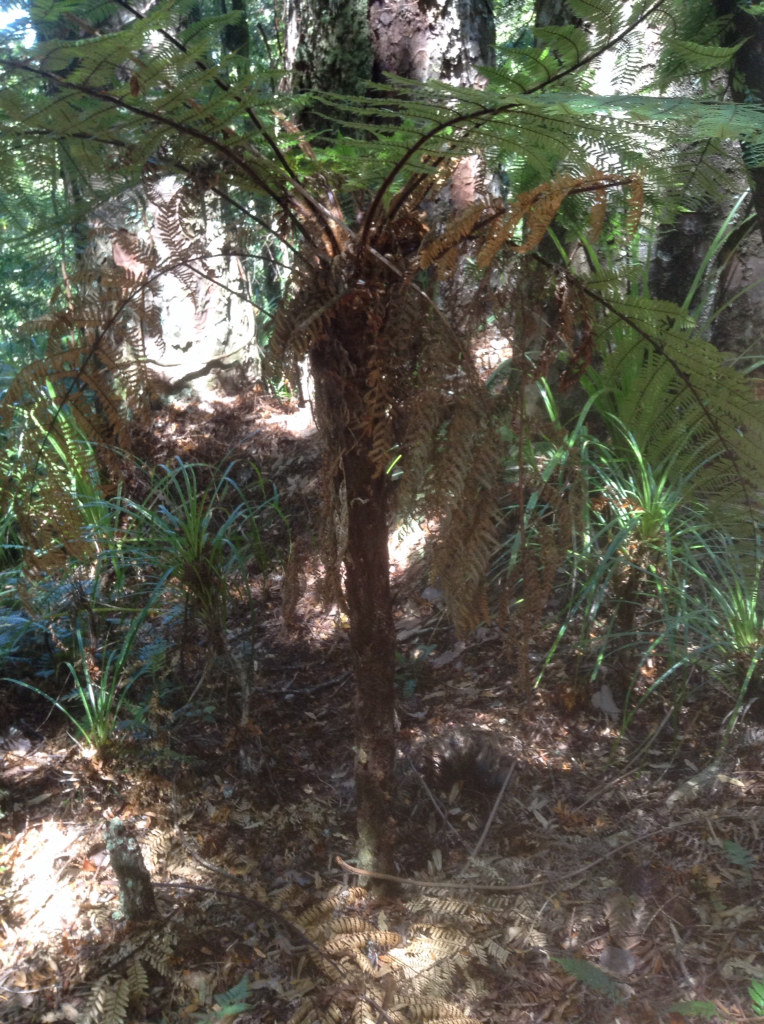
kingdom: Plantae
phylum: Tracheophyta
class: Polypodiopsida
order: Cyatheales
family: Dicksoniaceae
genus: Dicksonia
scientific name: Dicksonia squarrosa
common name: Hard treefern
